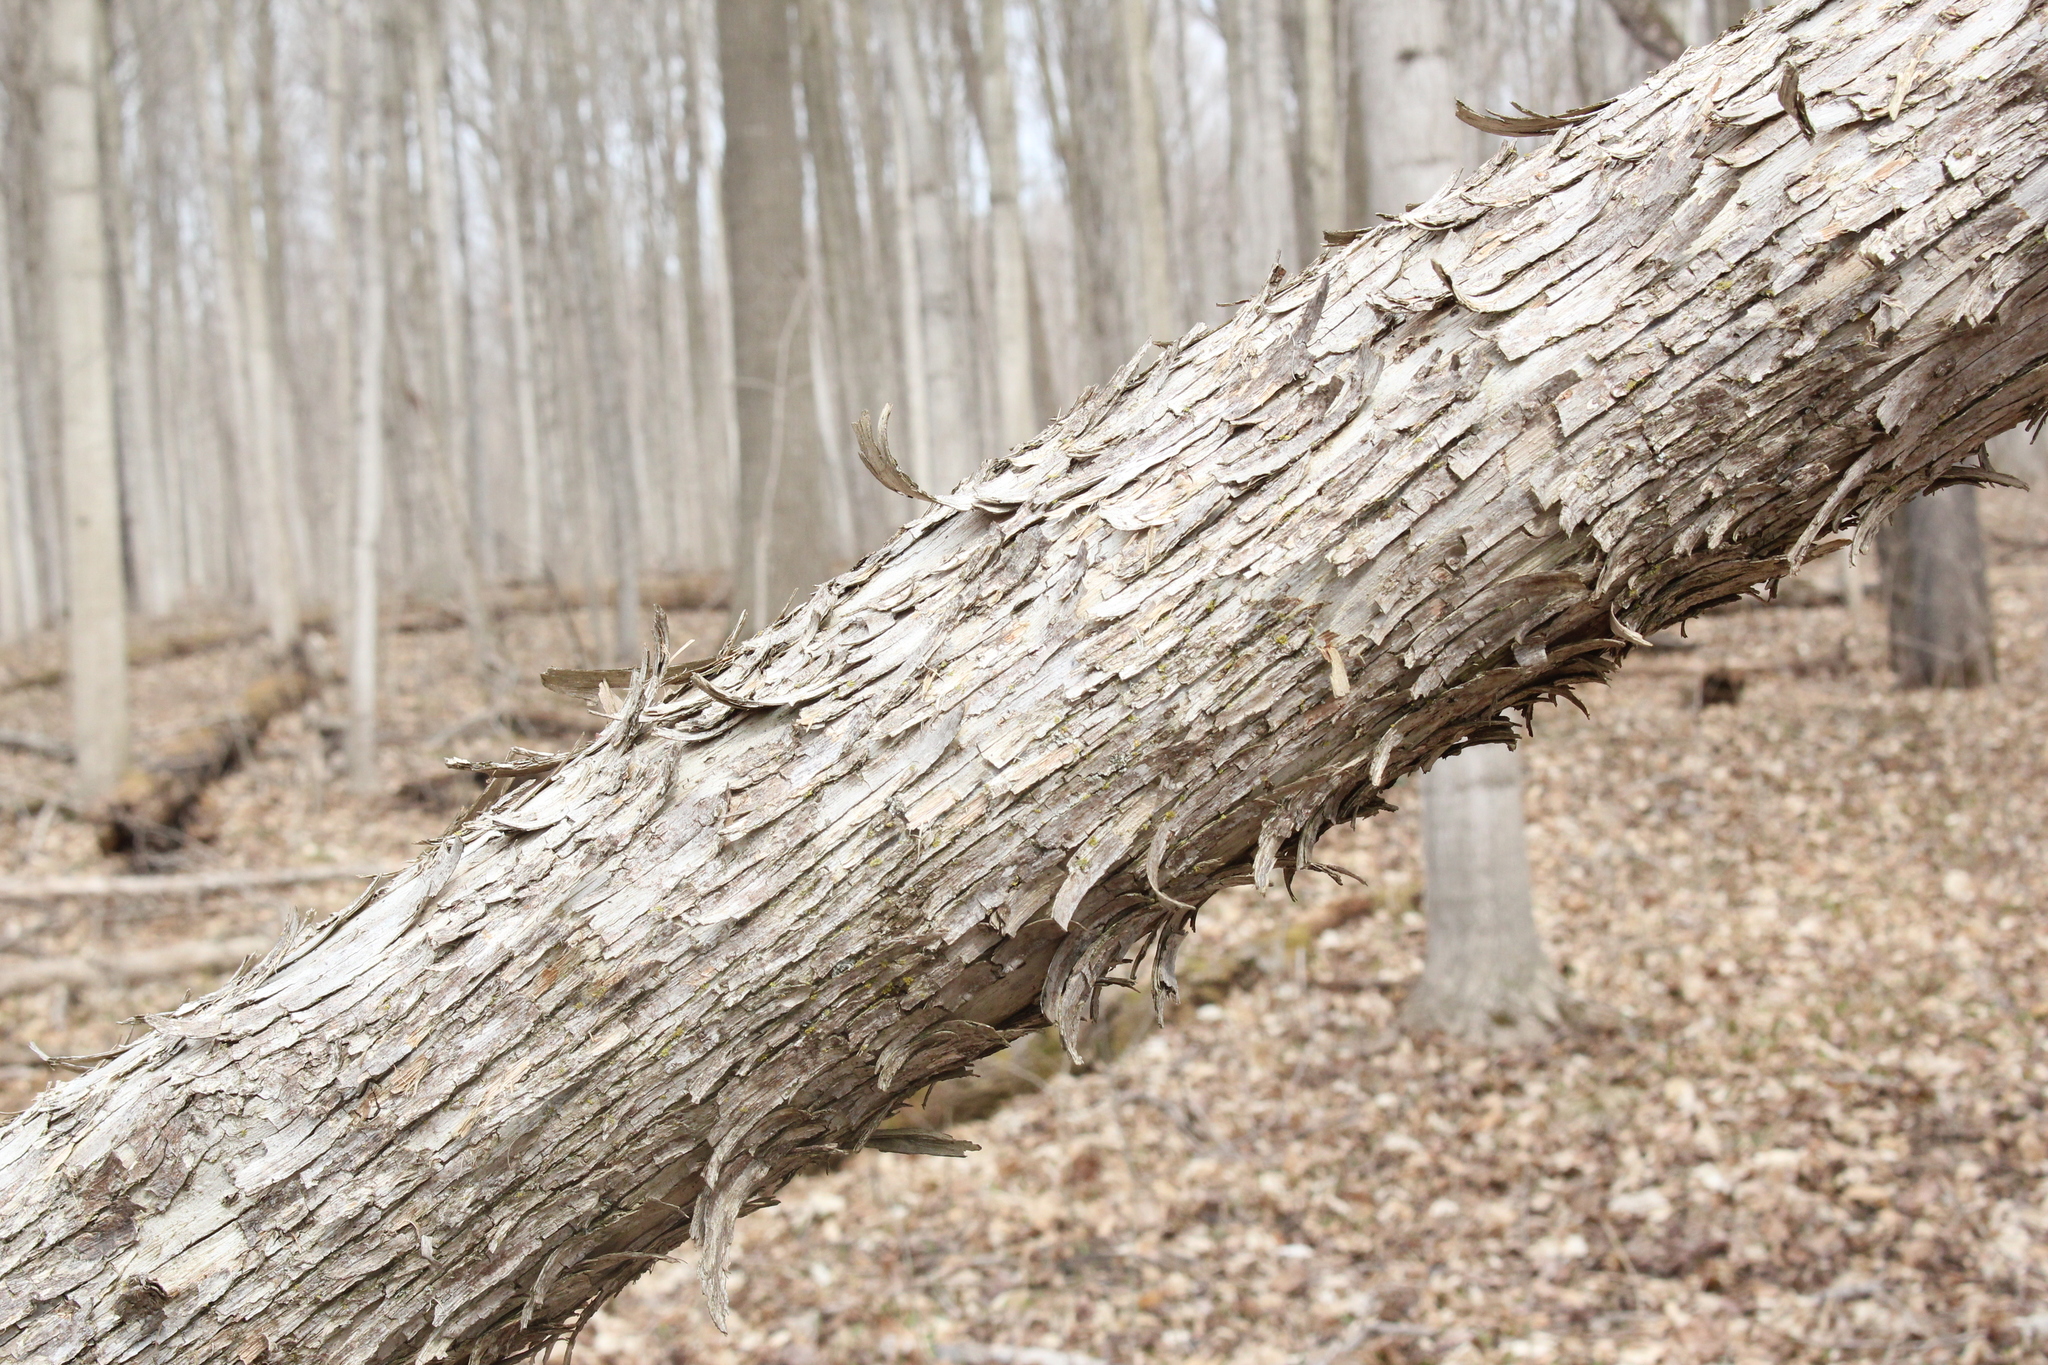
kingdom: Plantae
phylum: Tracheophyta
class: Magnoliopsida
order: Fagales
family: Betulaceae
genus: Ostrya
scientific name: Ostrya virginiana
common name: Ironwood
